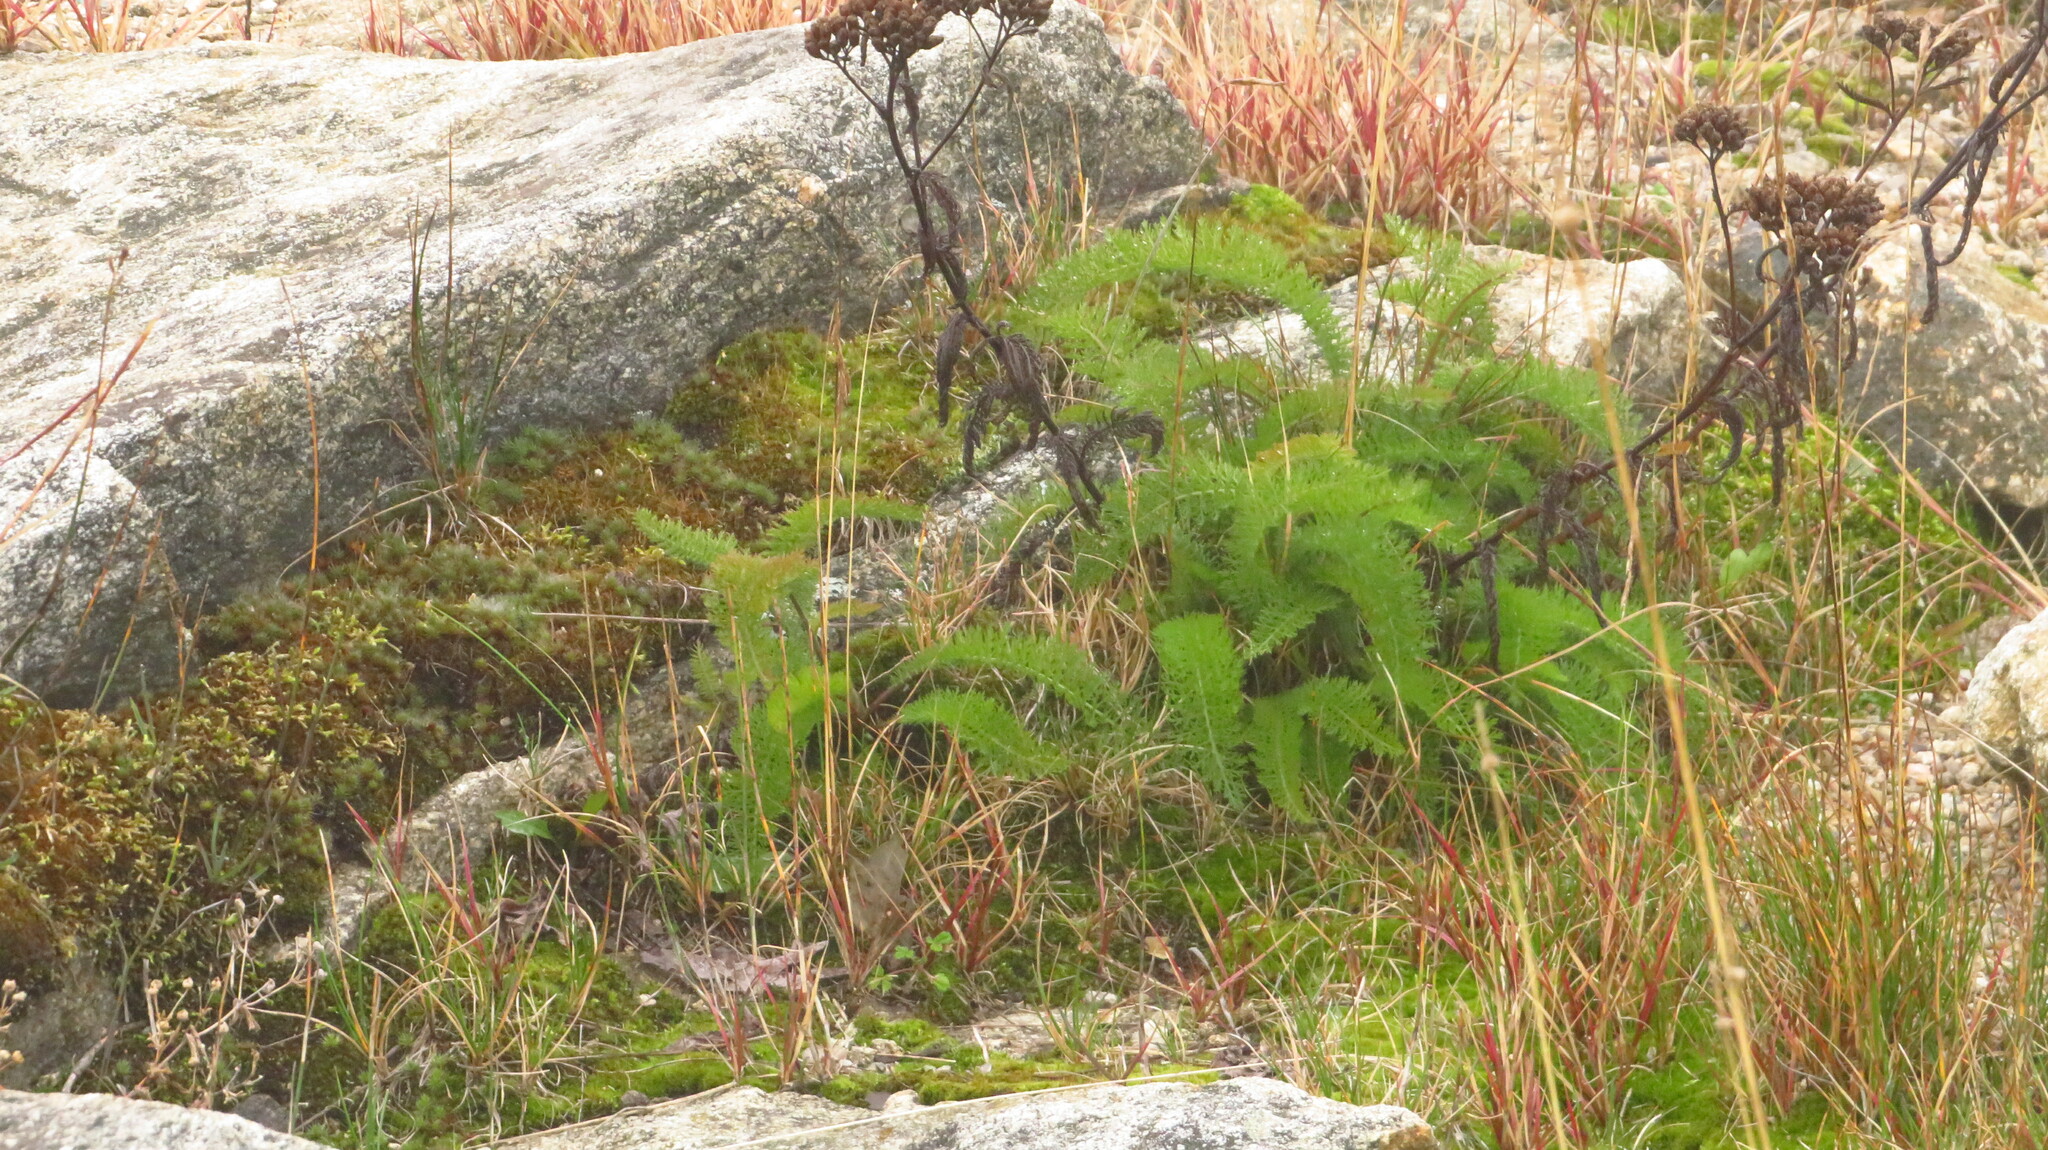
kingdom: Plantae
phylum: Tracheophyta
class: Magnoliopsida
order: Asterales
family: Asteraceae
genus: Achillea
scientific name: Achillea millefolium
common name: Yarrow
